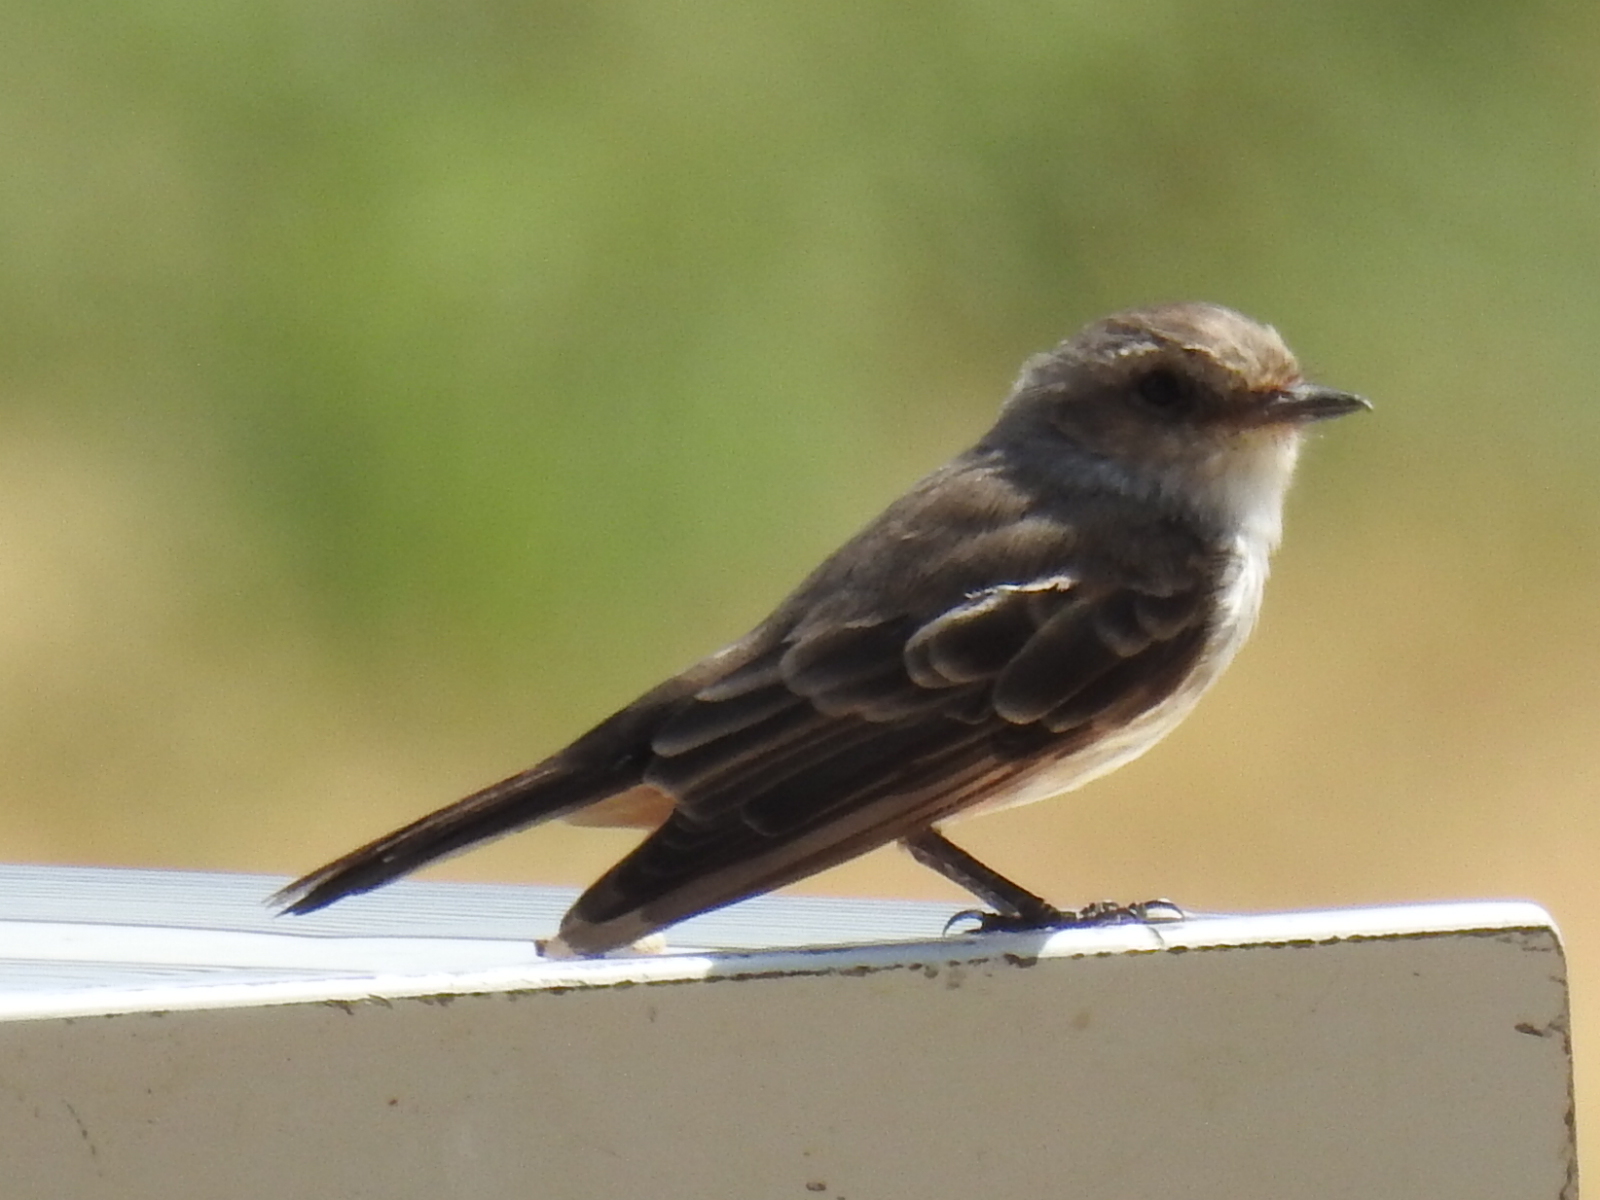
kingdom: Animalia
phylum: Chordata
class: Aves
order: Passeriformes
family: Tyrannidae
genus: Pyrocephalus
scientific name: Pyrocephalus rubinus
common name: Vermilion flycatcher
